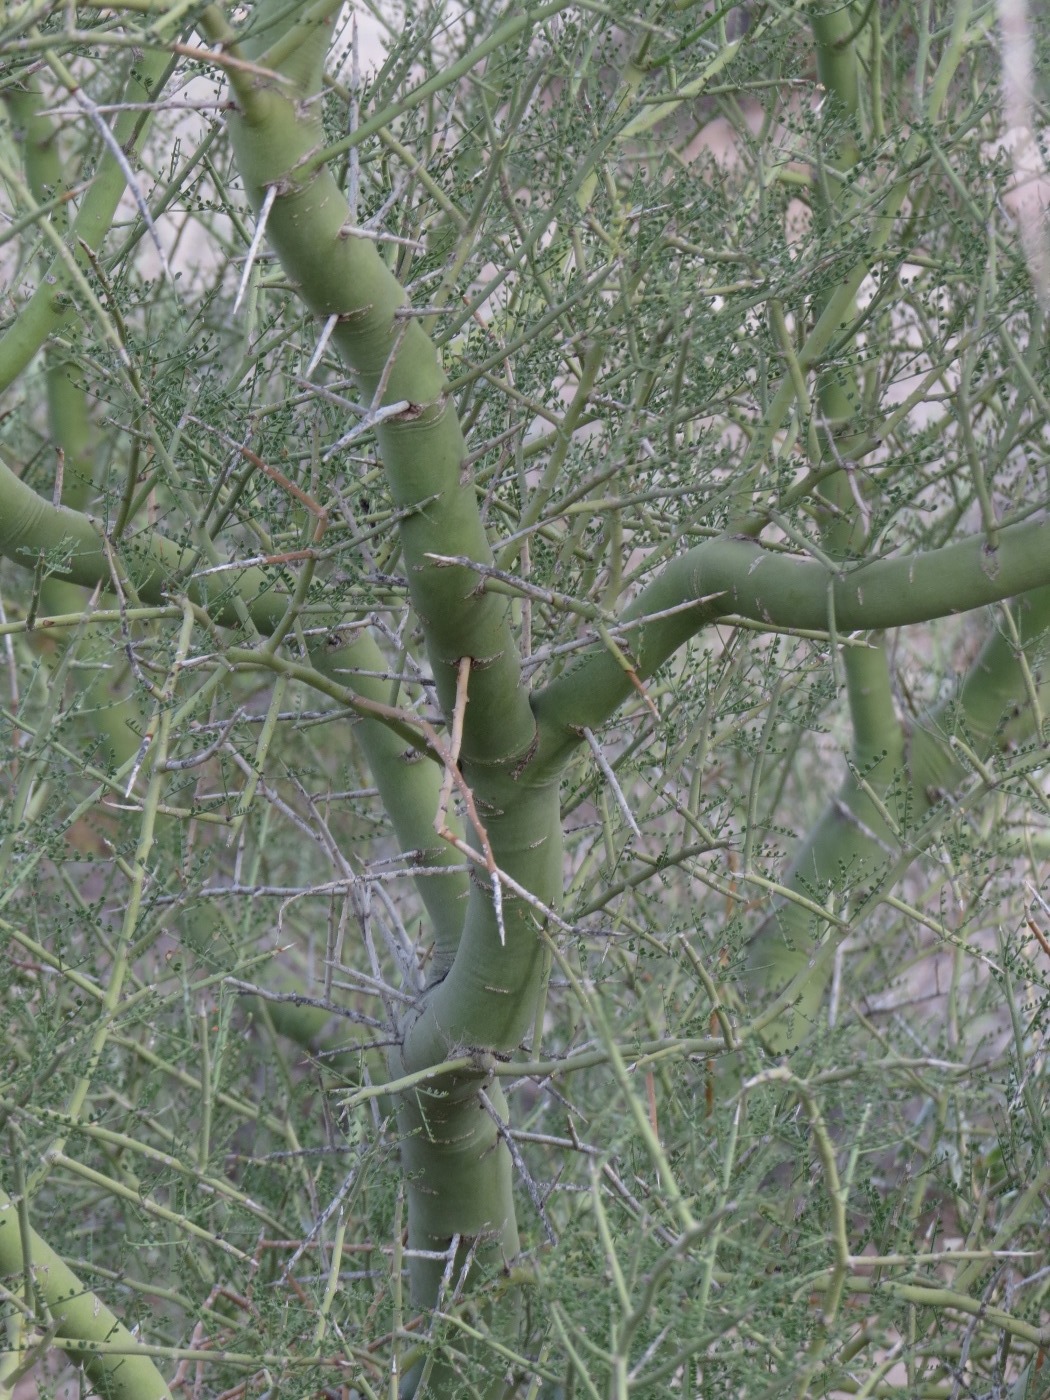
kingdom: Plantae
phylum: Tracheophyta
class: Magnoliopsida
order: Fabales
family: Fabaceae
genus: Parkinsonia
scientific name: Parkinsonia microphylla
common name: Yellow paloverde
